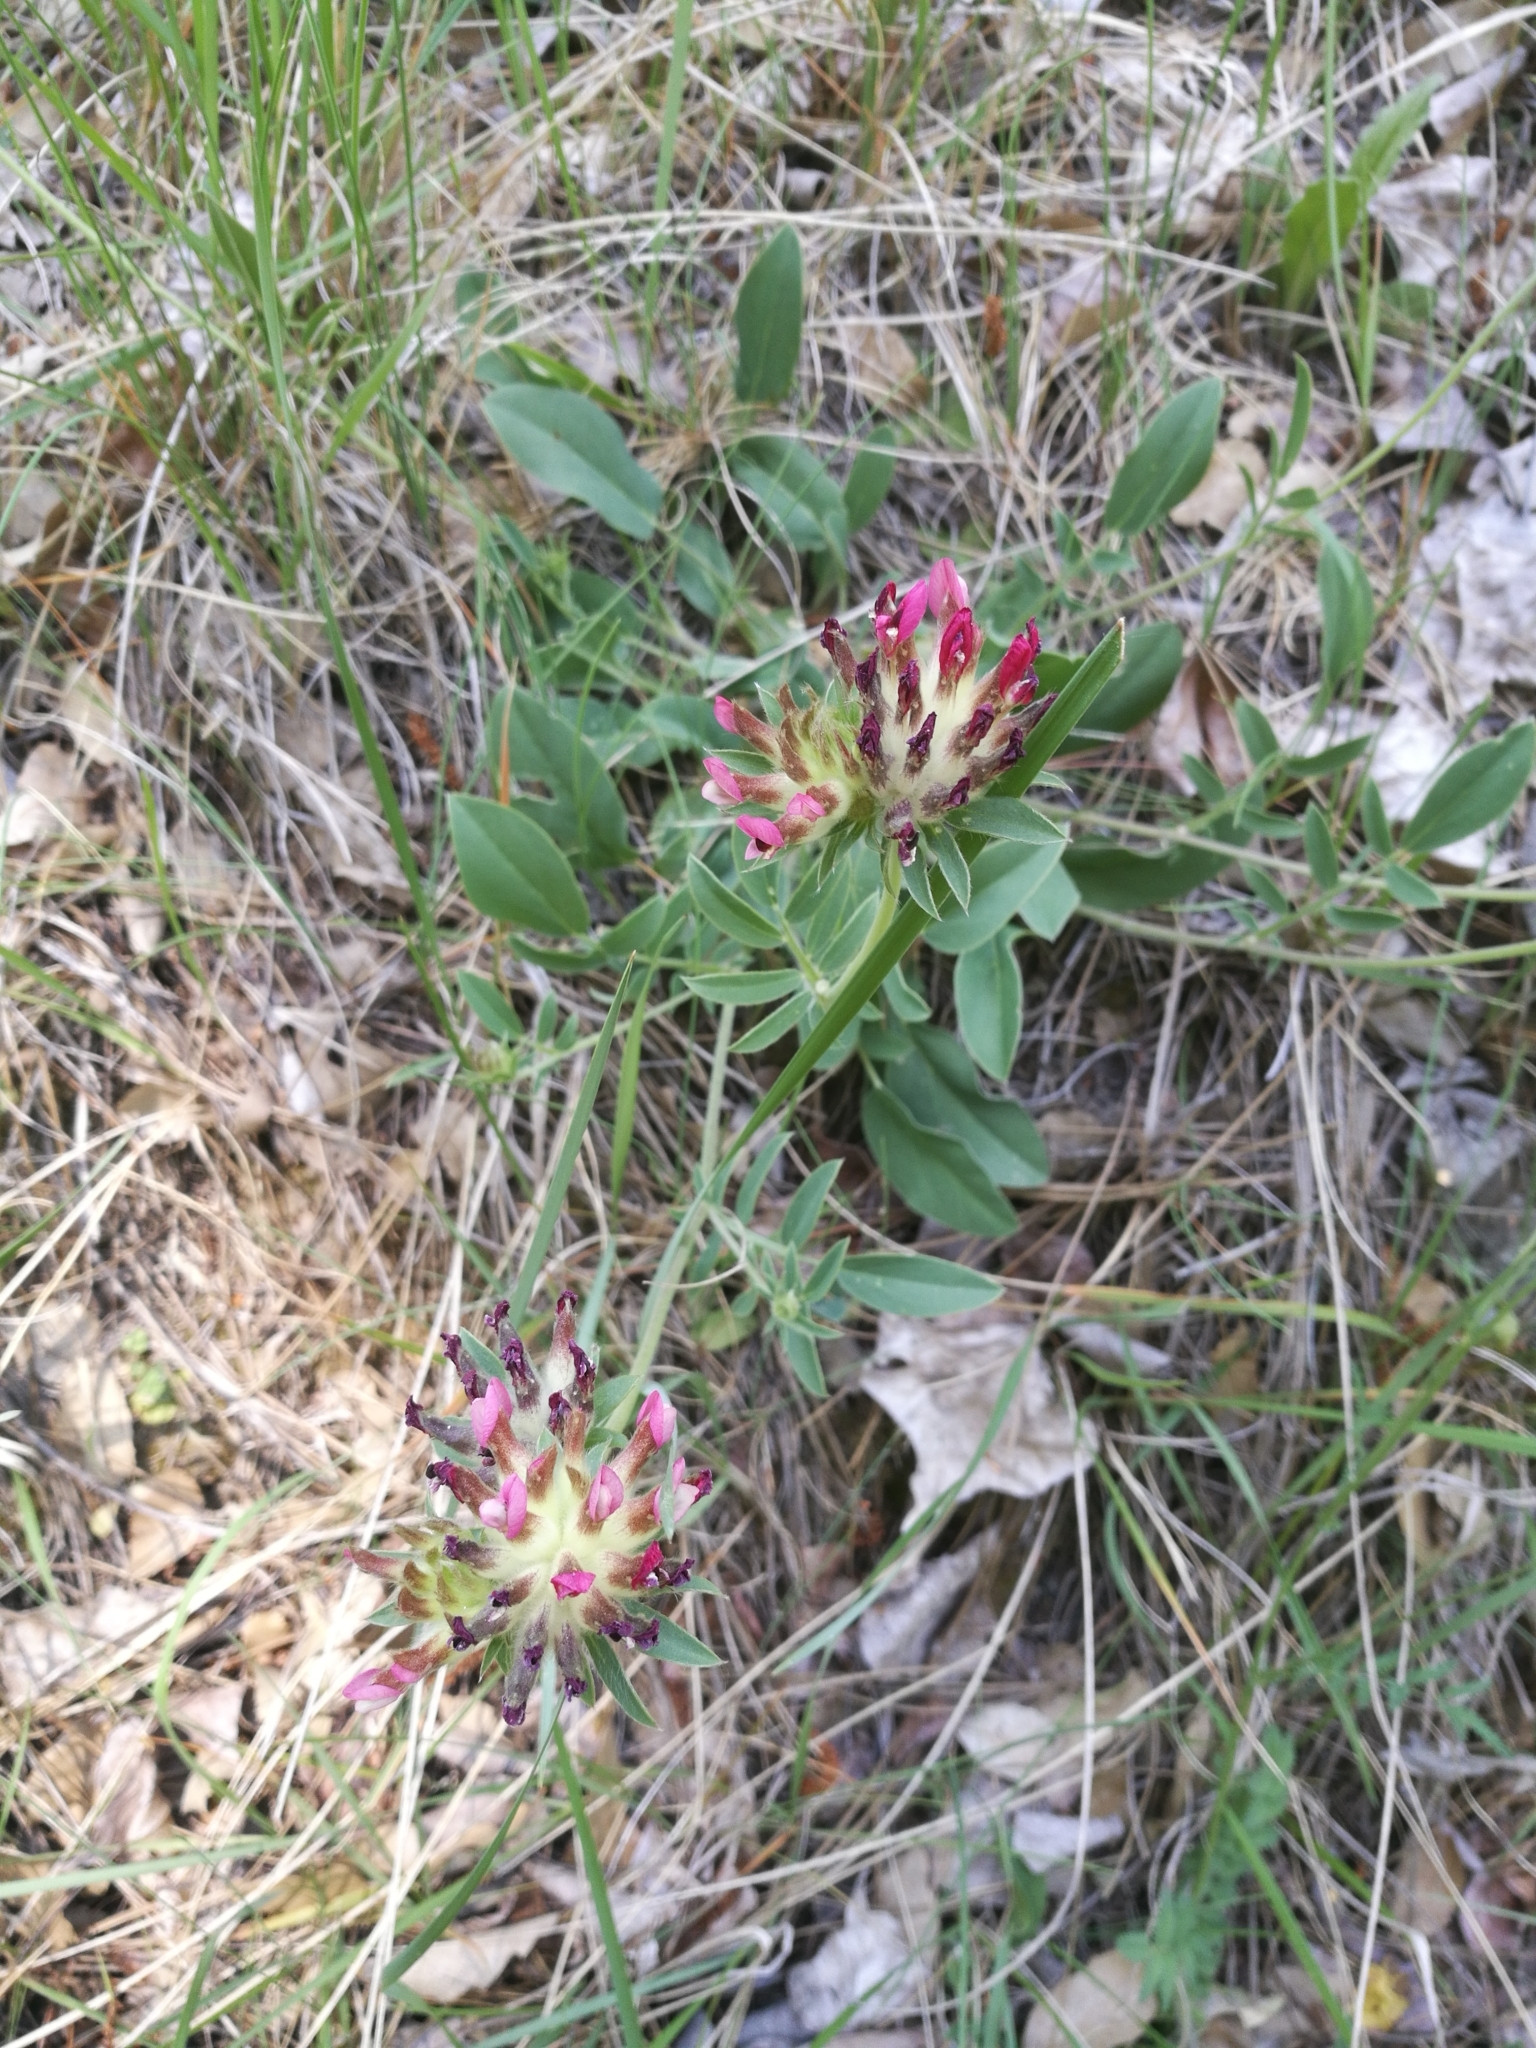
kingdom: Plantae
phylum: Tracheophyta
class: Magnoliopsida
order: Fabales
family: Fabaceae
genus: Anthyllis
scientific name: Anthyllis vulneraria
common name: Kidney vetch
